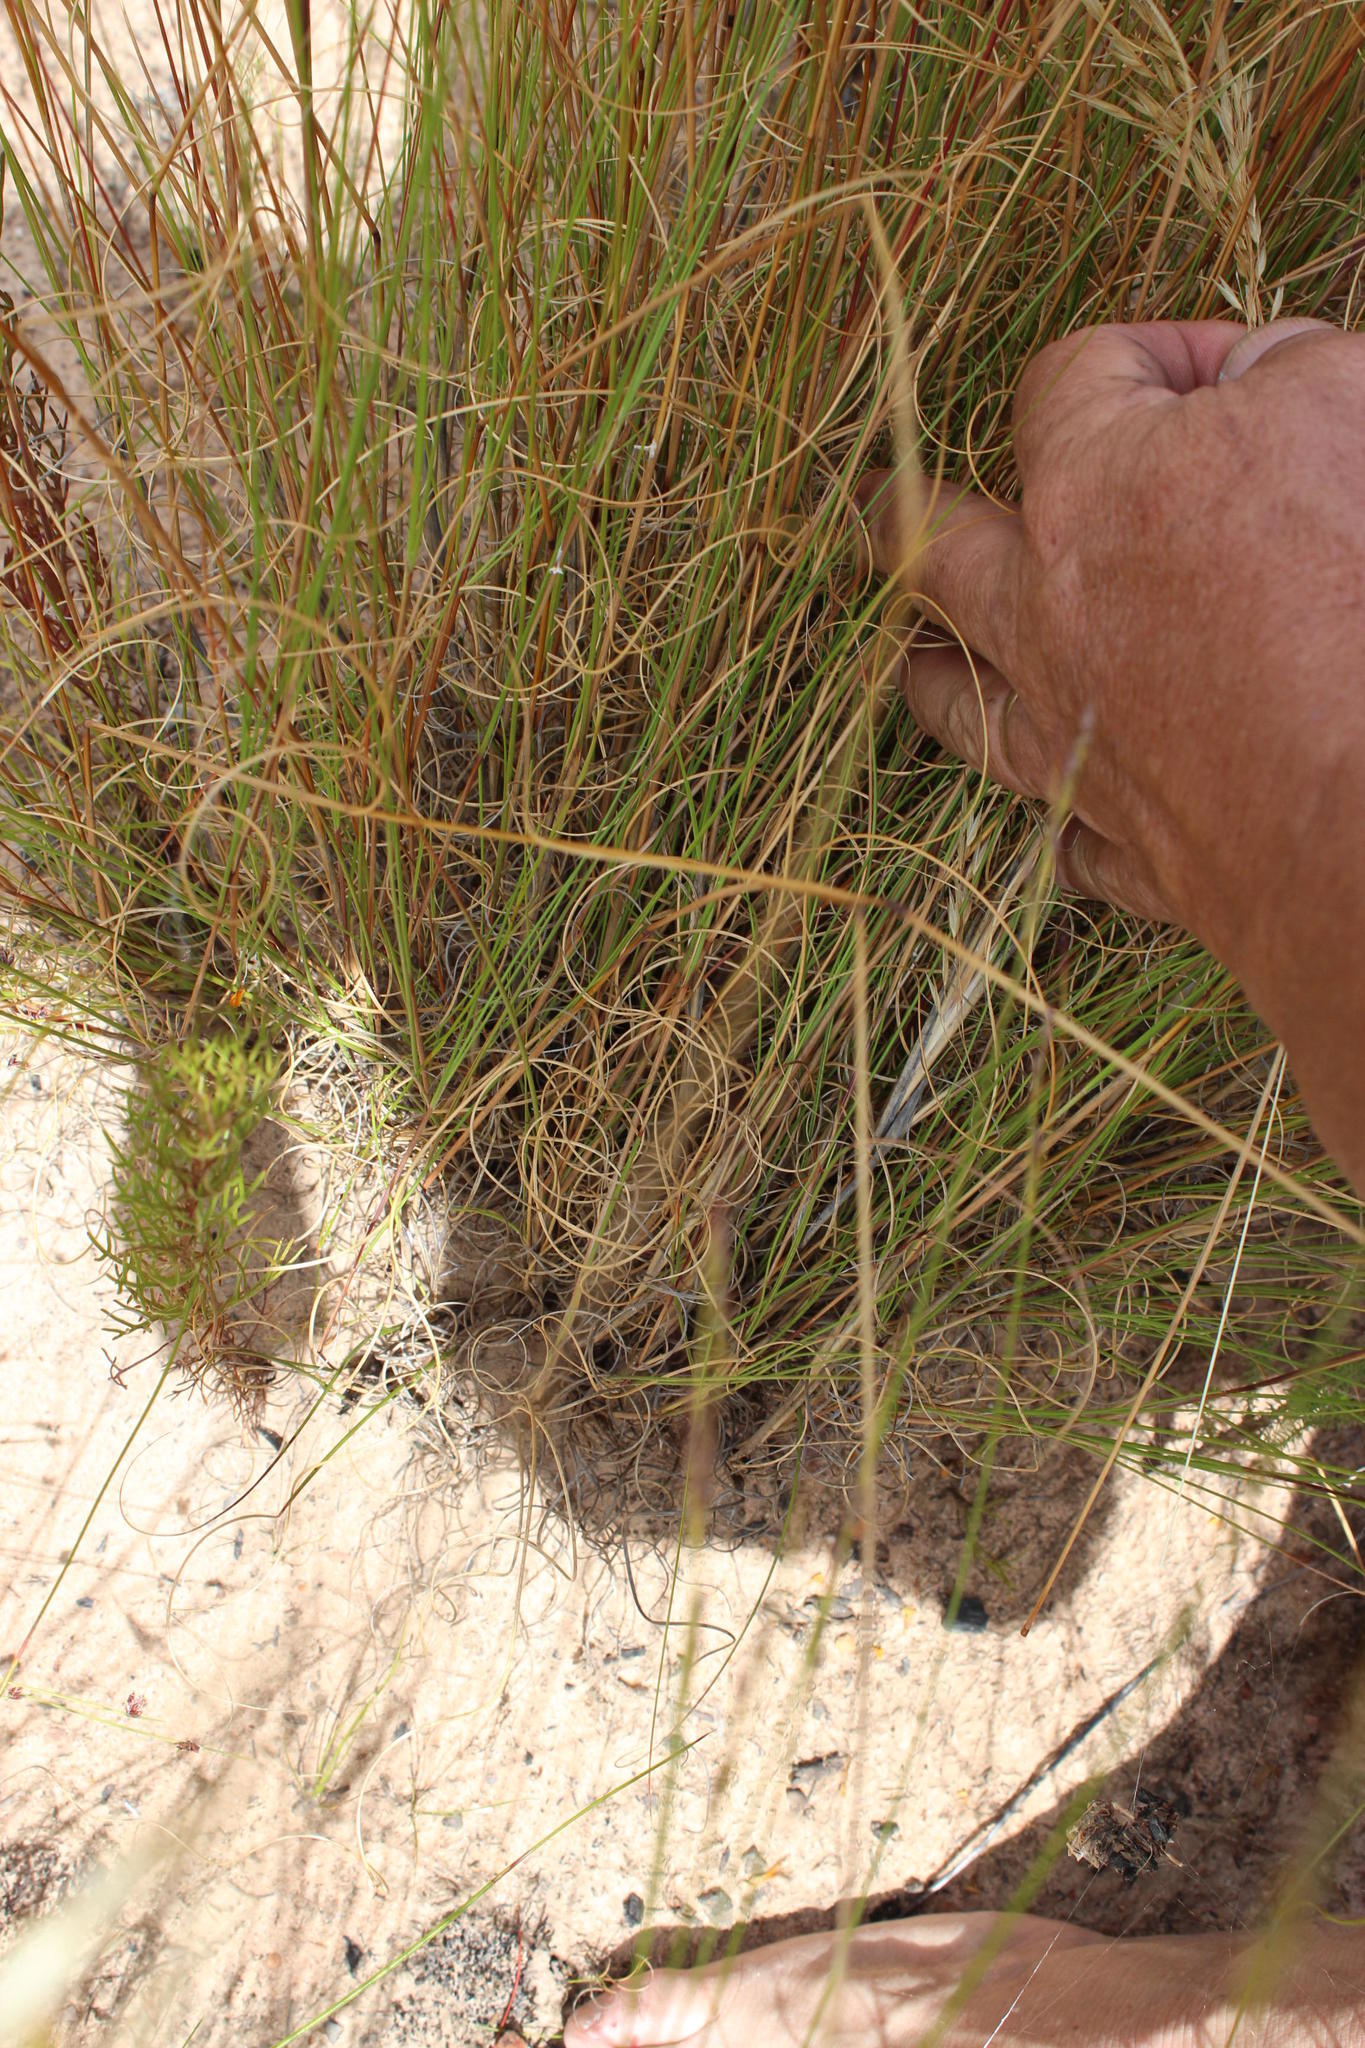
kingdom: Plantae
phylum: Tracheophyta
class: Liliopsida
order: Poales
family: Poaceae
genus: Pentameris
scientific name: Pentameris colorata
